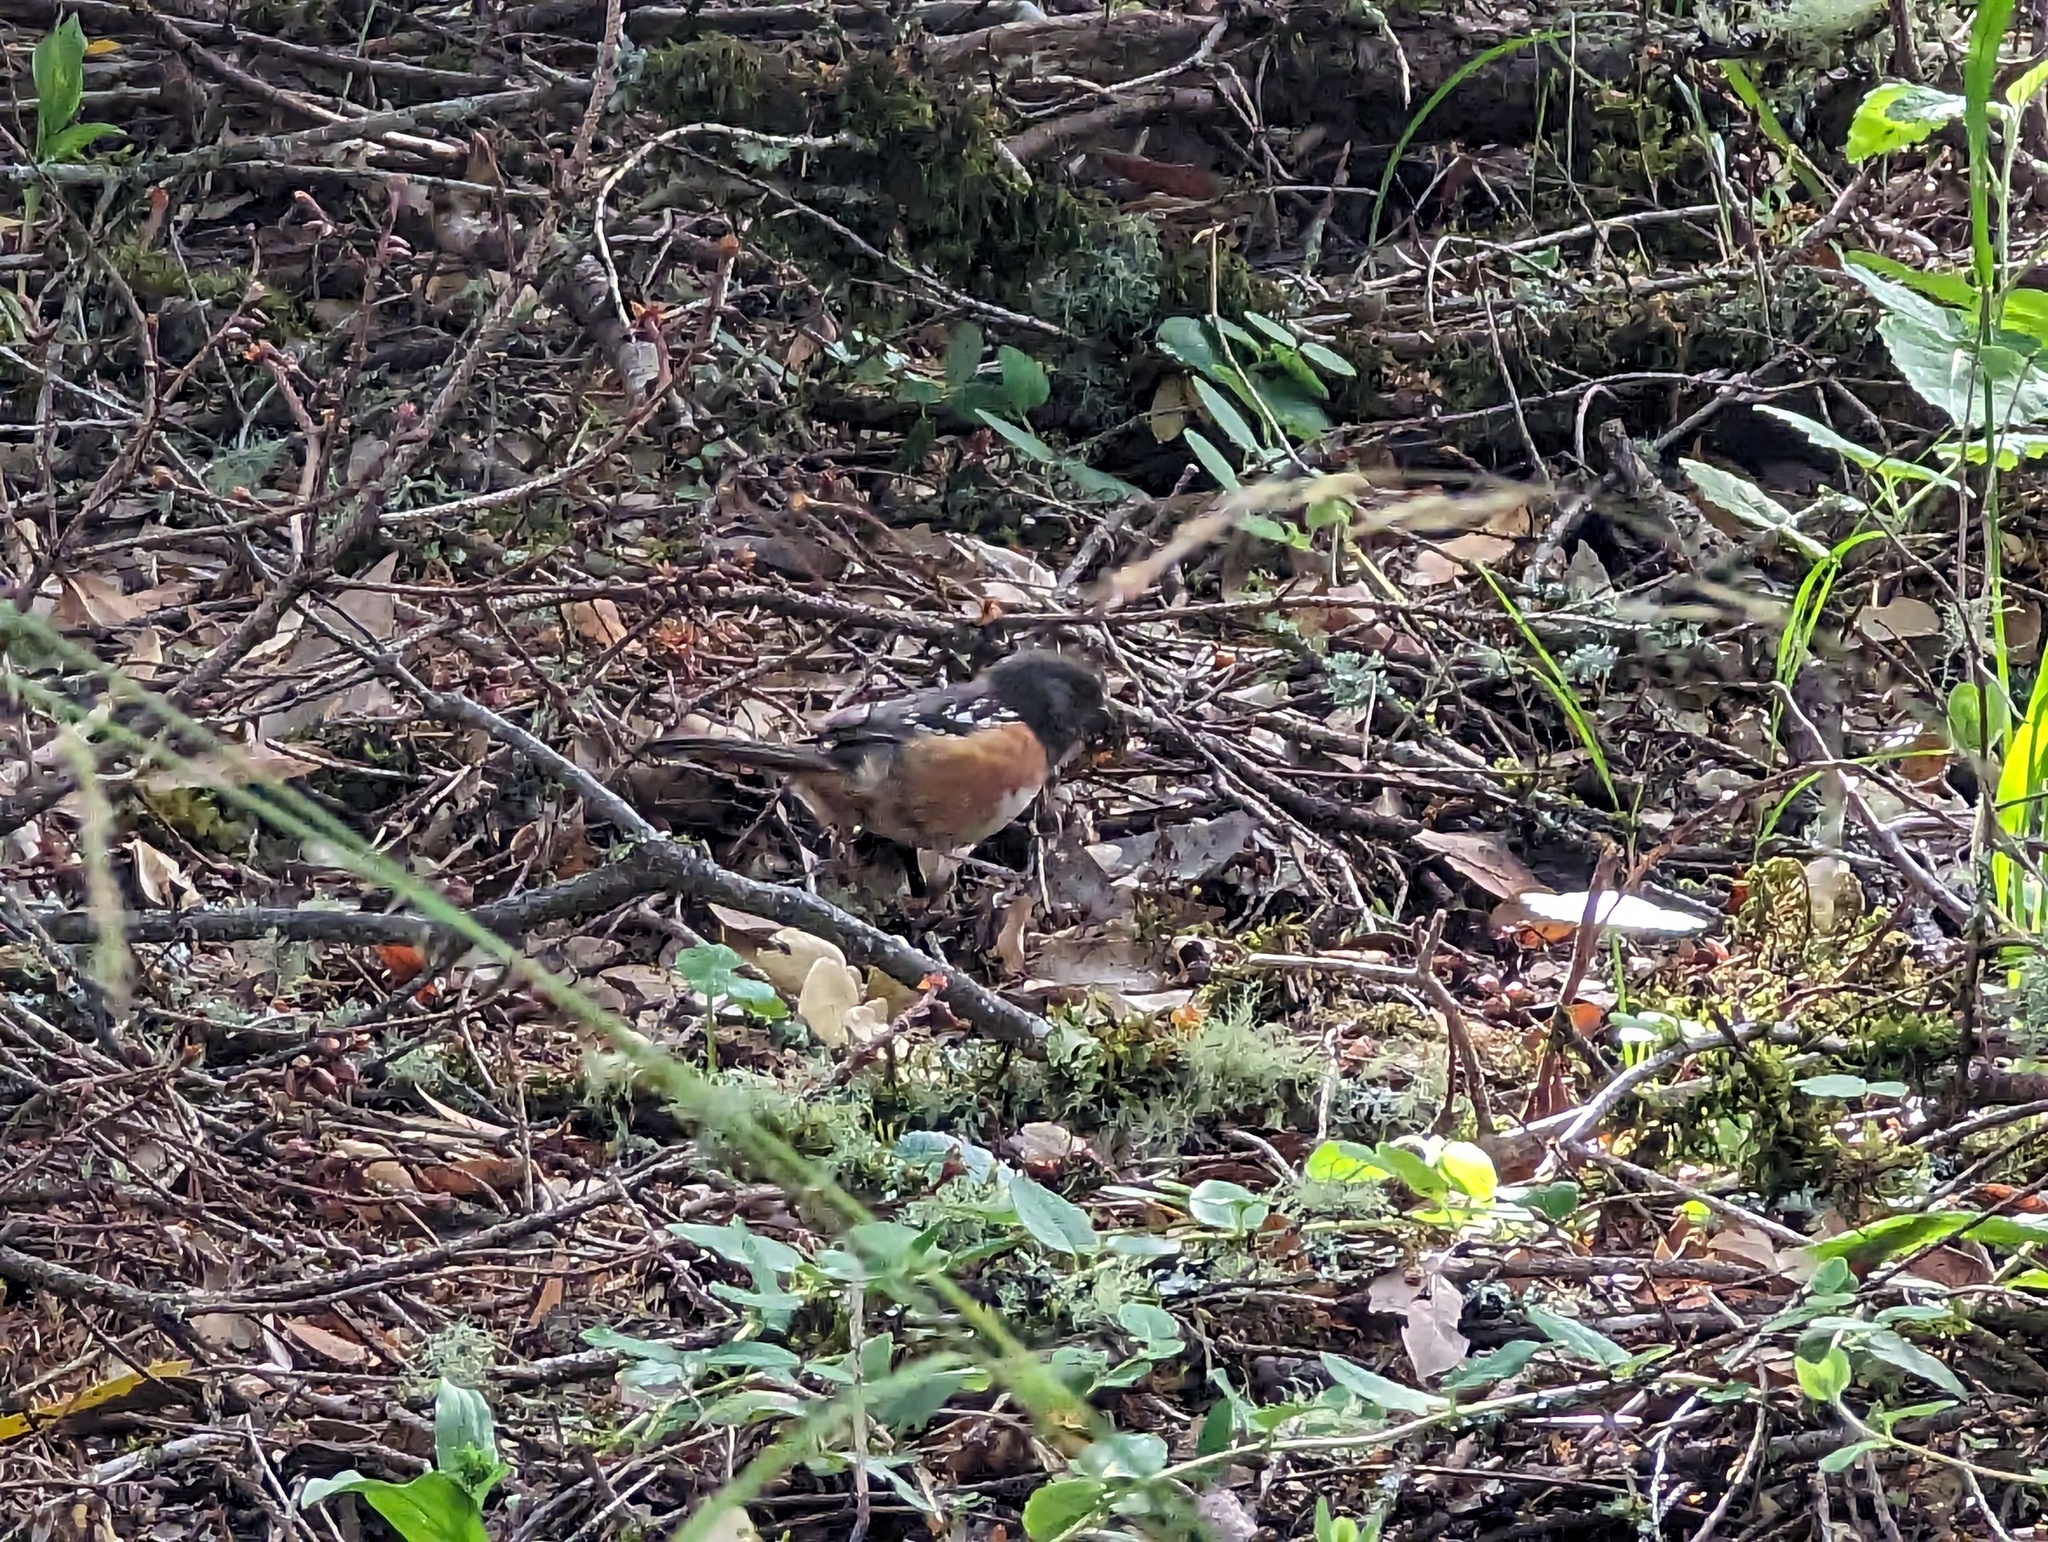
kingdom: Animalia
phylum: Chordata
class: Aves
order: Passeriformes
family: Passerellidae
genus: Pipilo
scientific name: Pipilo maculatus
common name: Spotted towhee
